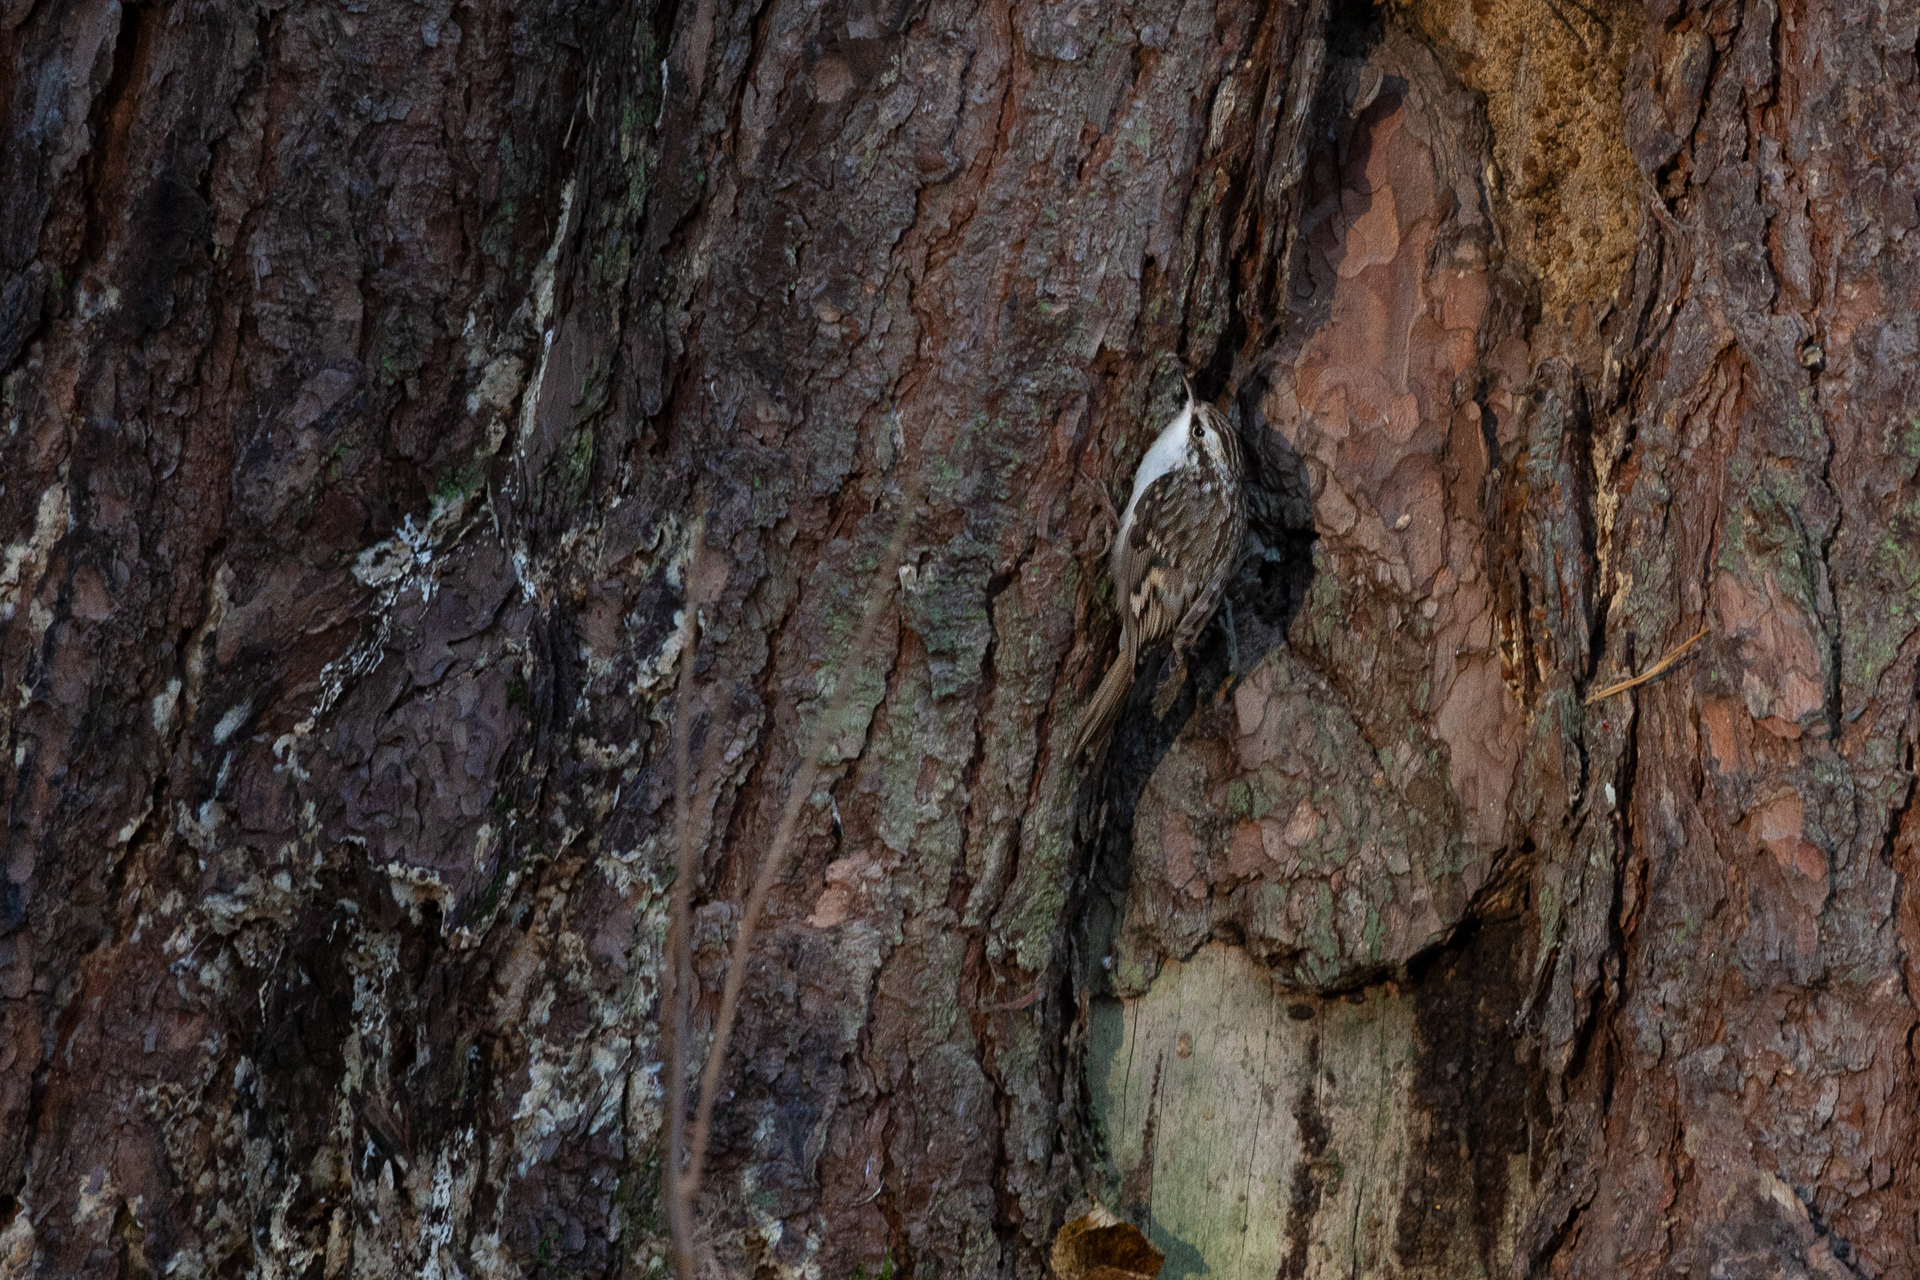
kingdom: Animalia
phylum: Chordata
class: Aves
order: Passeriformes
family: Certhiidae
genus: Certhia
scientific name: Certhia familiaris
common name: Eurasian treecreeper
